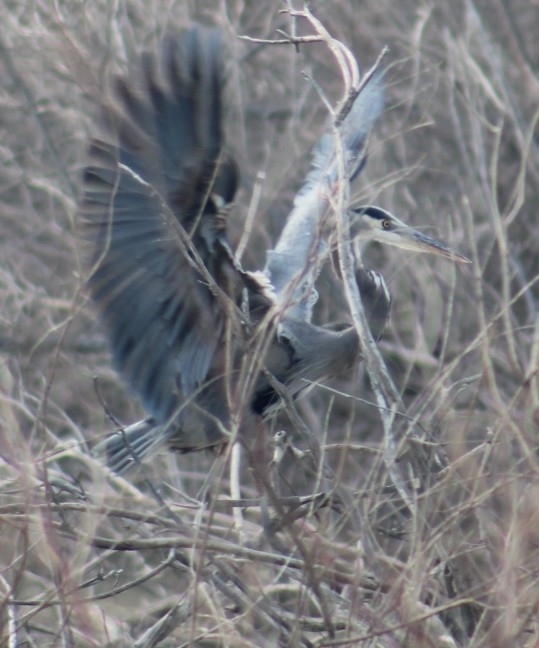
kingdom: Animalia
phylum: Chordata
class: Aves
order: Pelecaniformes
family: Ardeidae
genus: Ardea
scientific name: Ardea herodias
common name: Great blue heron
